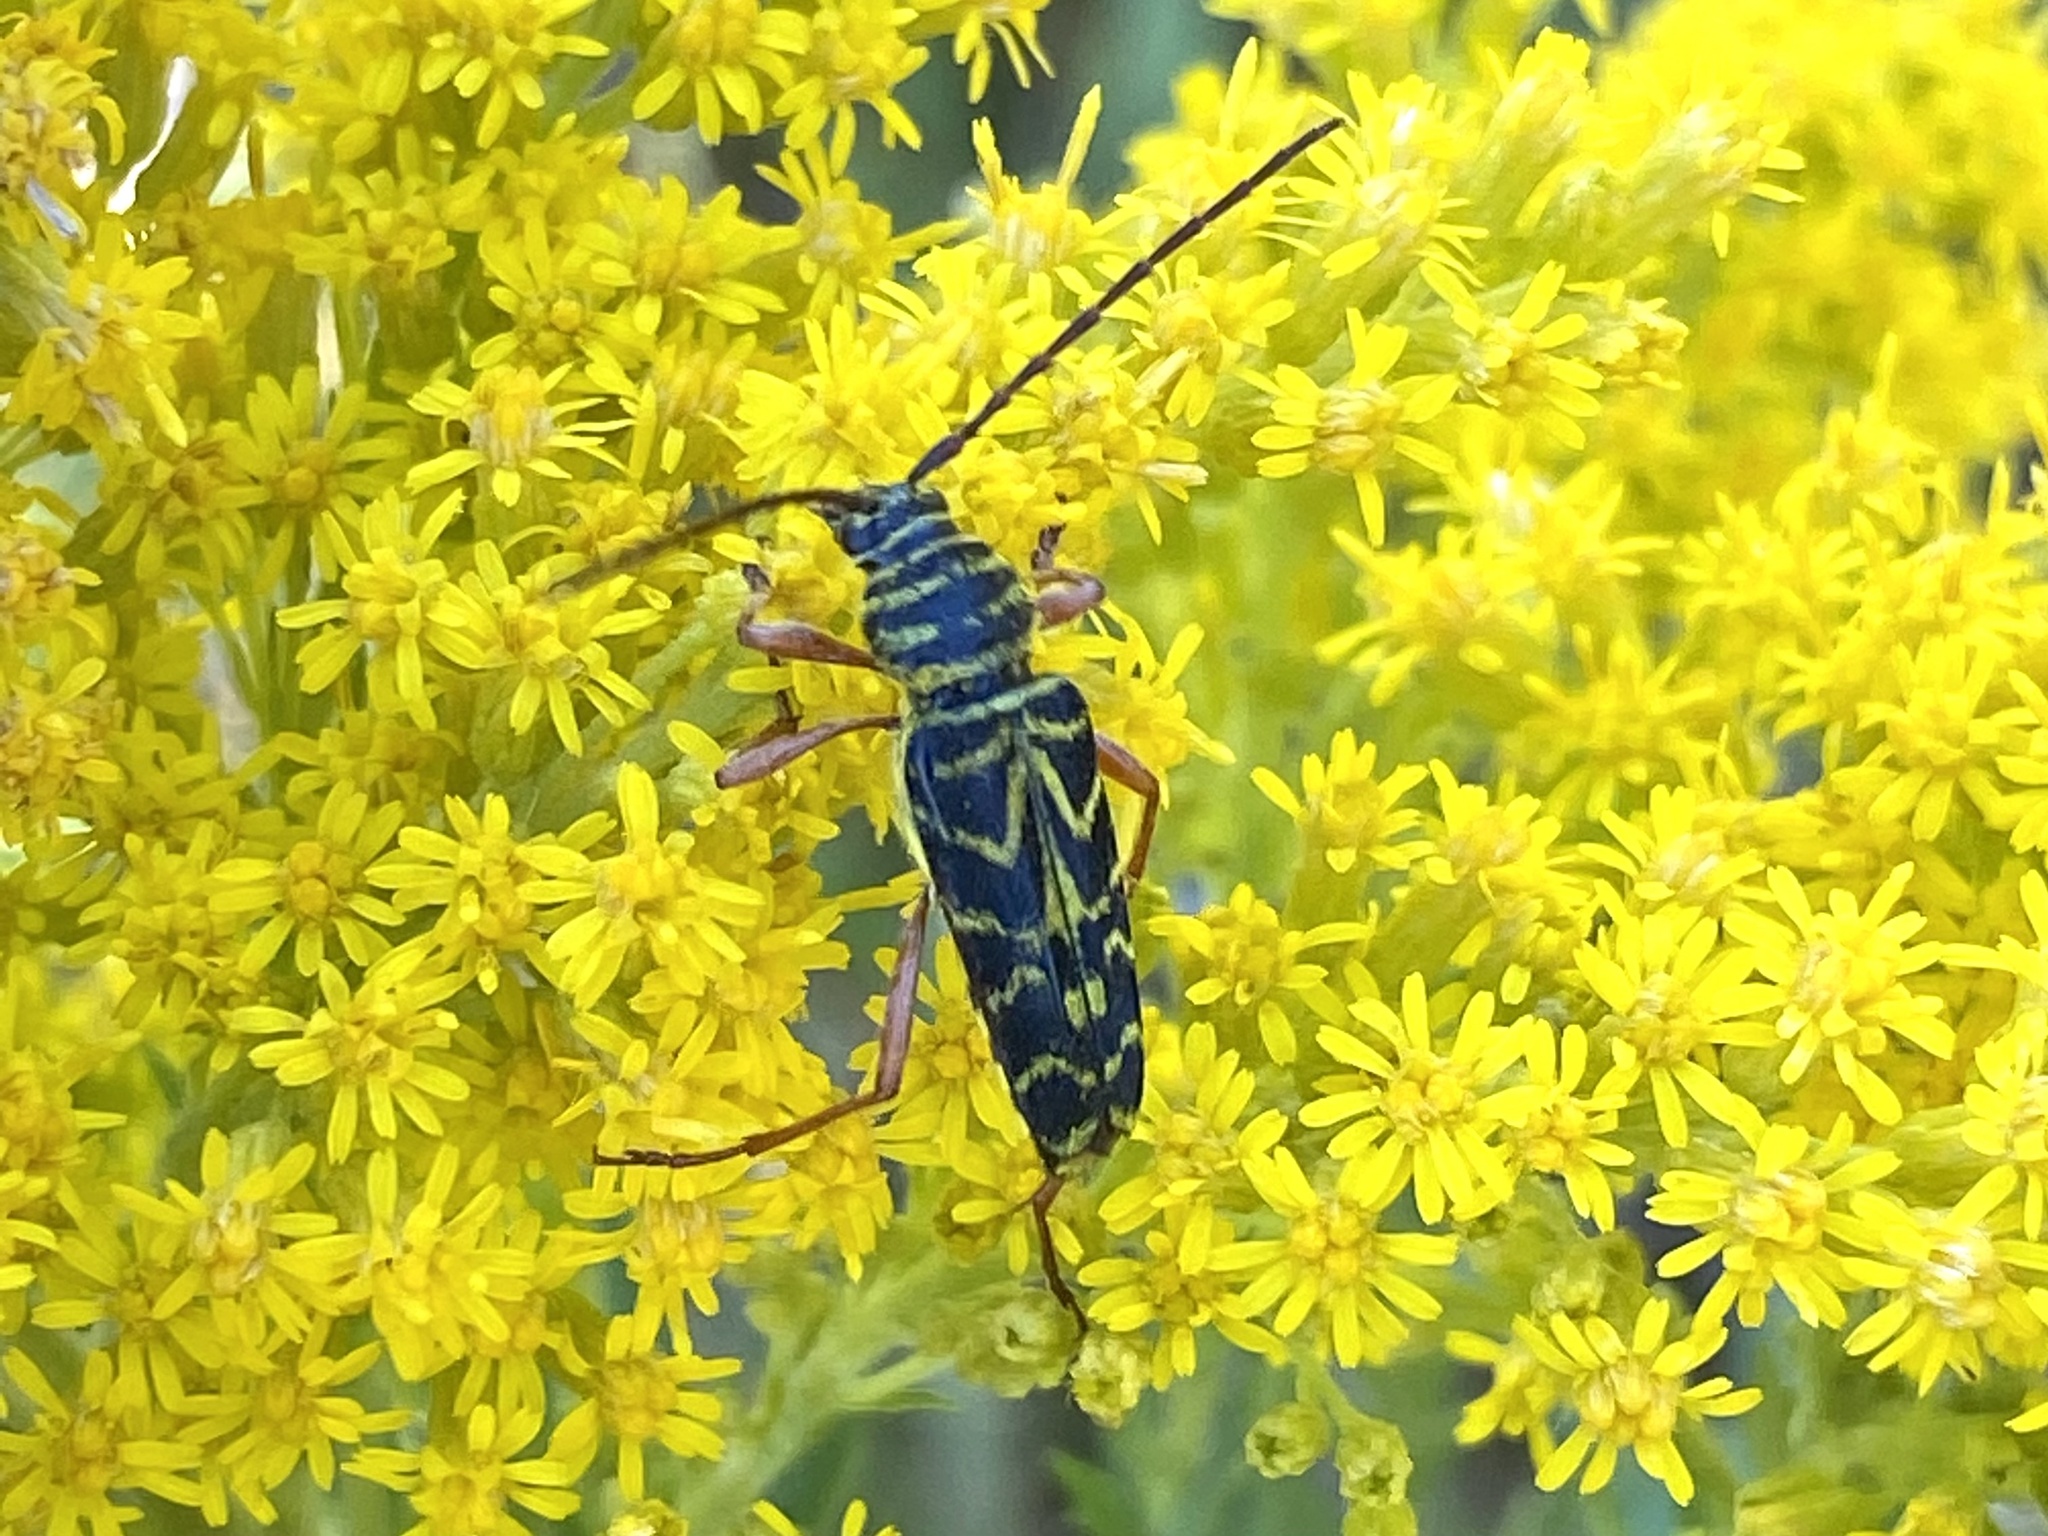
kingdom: Animalia
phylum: Arthropoda
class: Insecta
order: Coleoptera
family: Cerambycidae
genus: Megacyllene
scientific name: Megacyllene robiniae
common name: Locust borer
